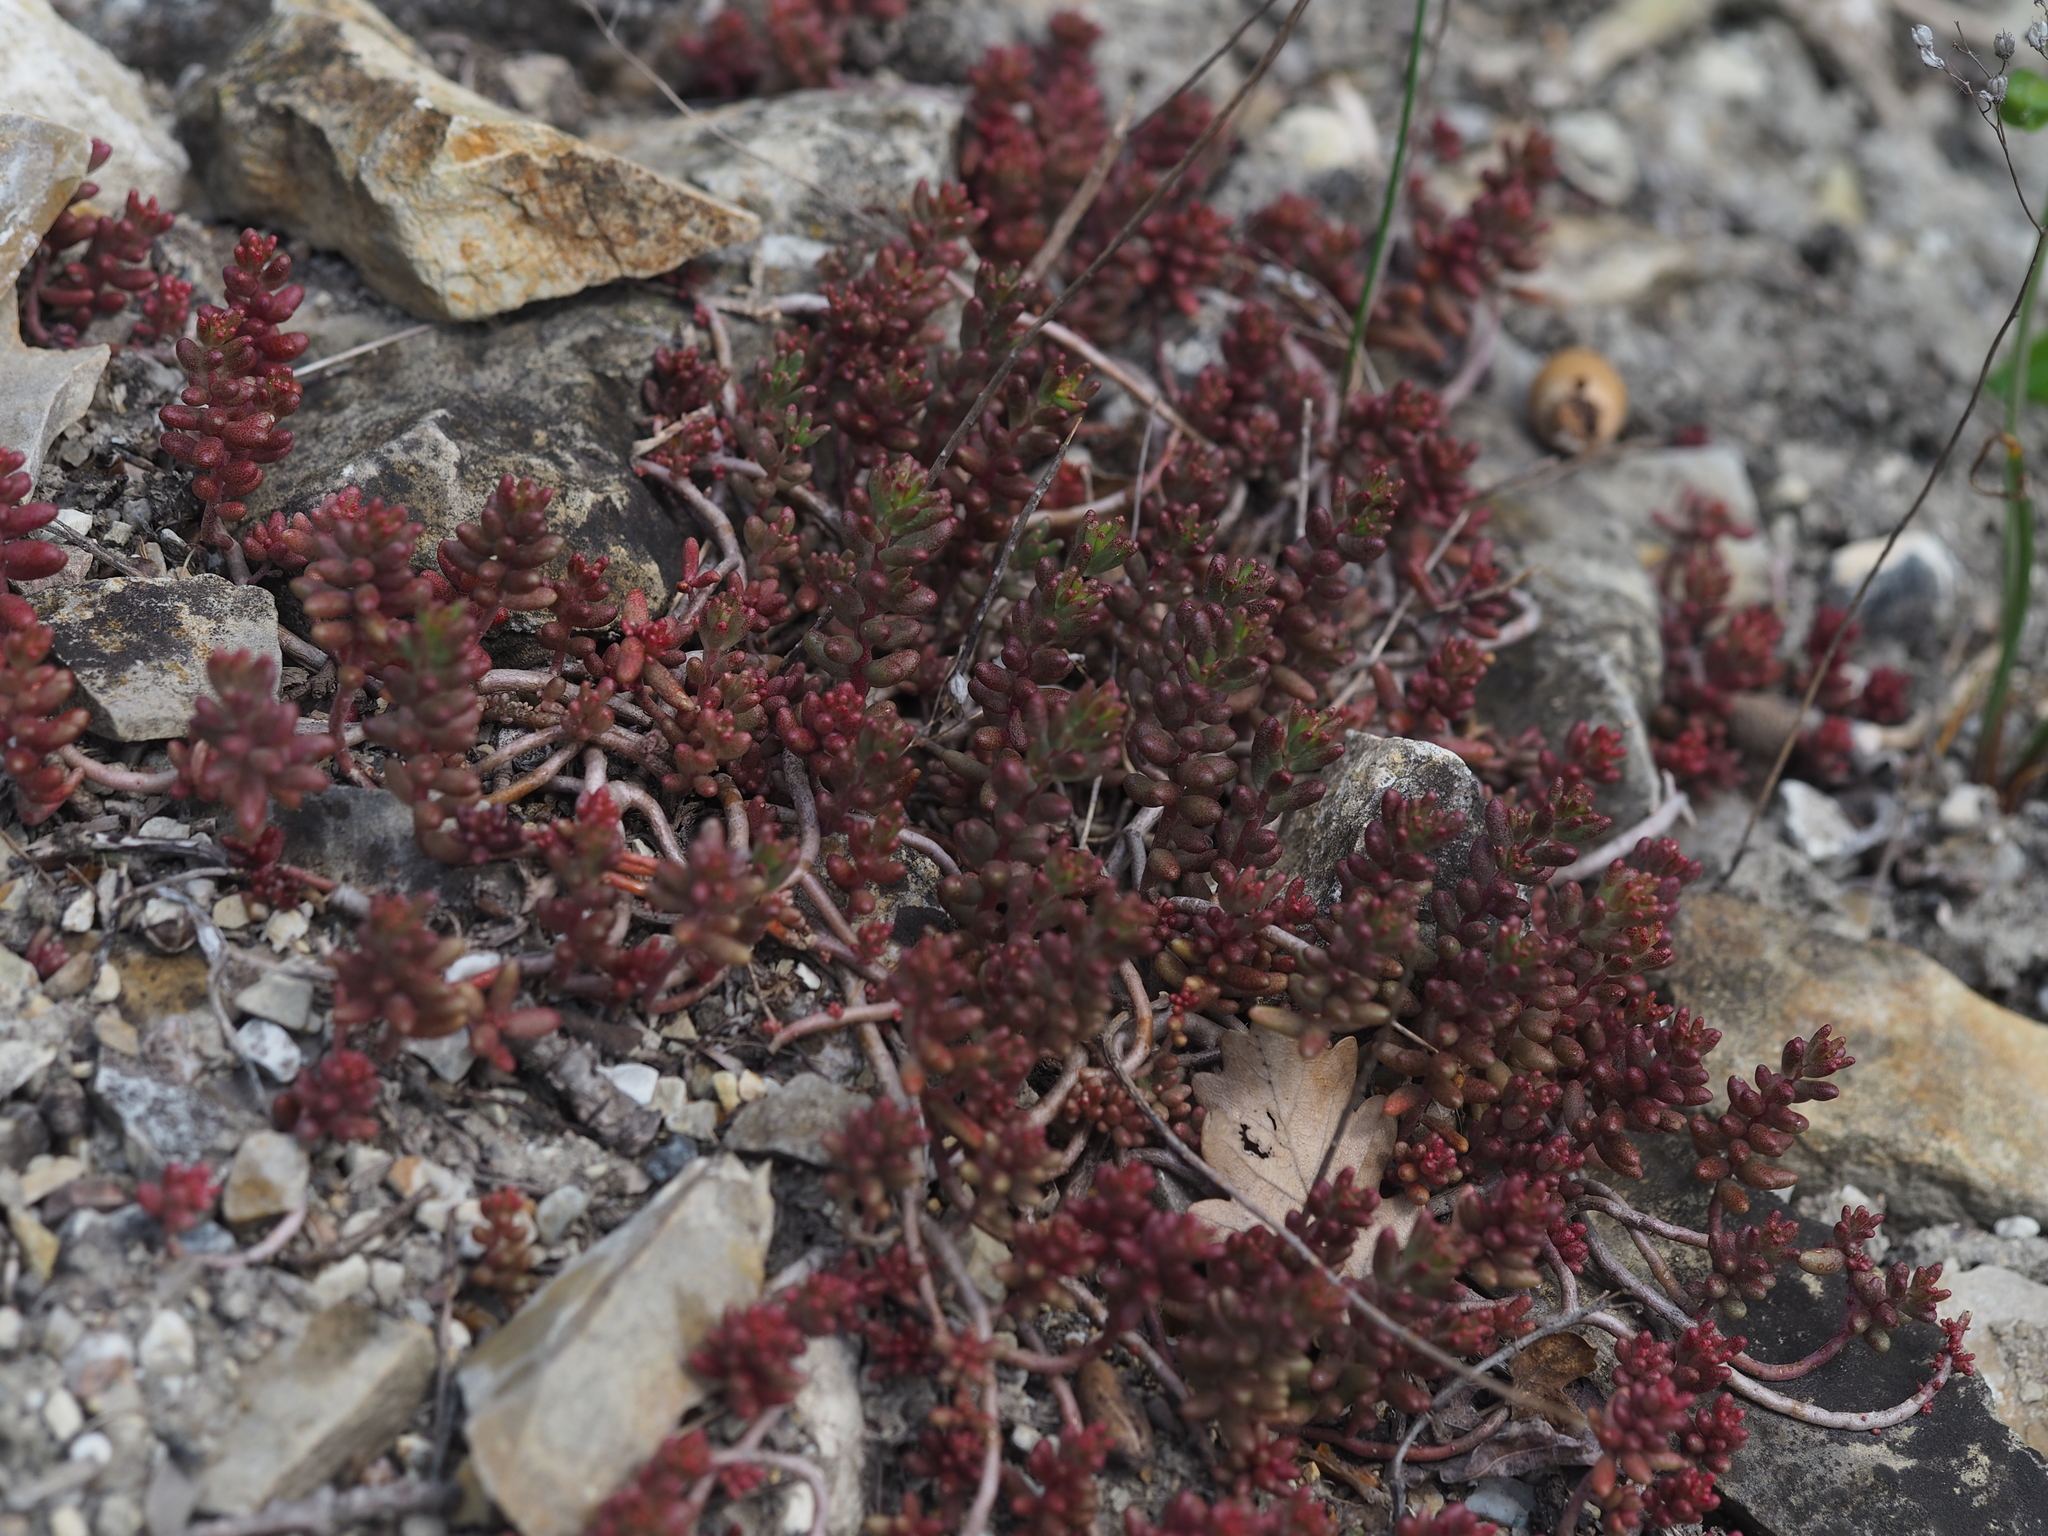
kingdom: Plantae
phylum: Tracheophyta
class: Magnoliopsida
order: Saxifragales
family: Crassulaceae
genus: Sedum
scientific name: Sedum album
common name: White stonecrop
